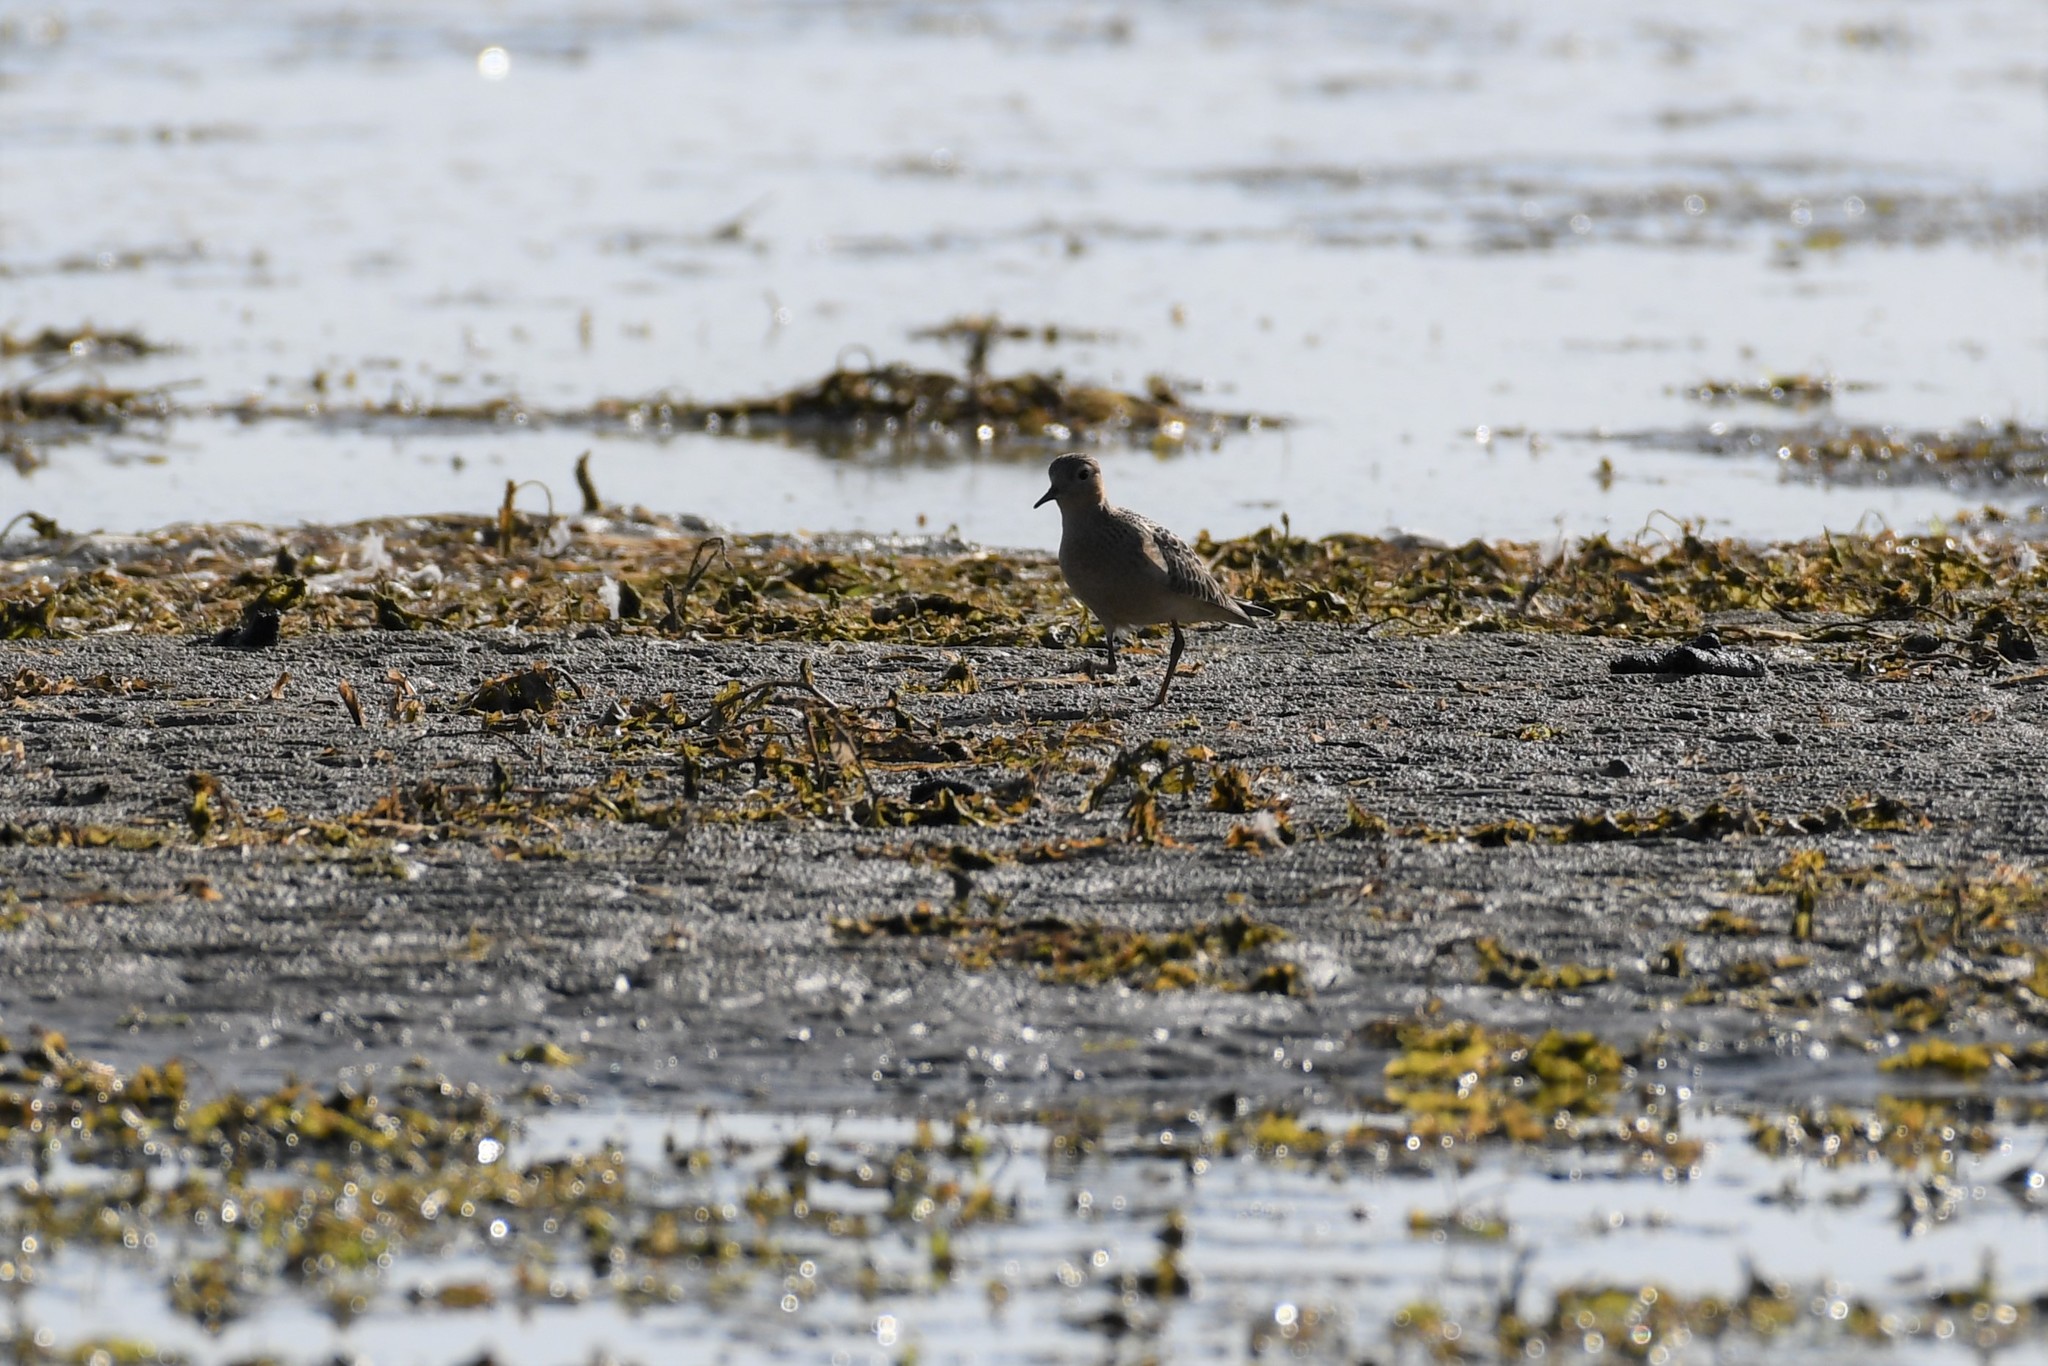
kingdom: Animalia
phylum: Chordata
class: Aves
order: Charadriiformes
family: Scolopacidae
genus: Calidris
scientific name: Calidris subruficollis
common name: Buff-breasted sandpiper
